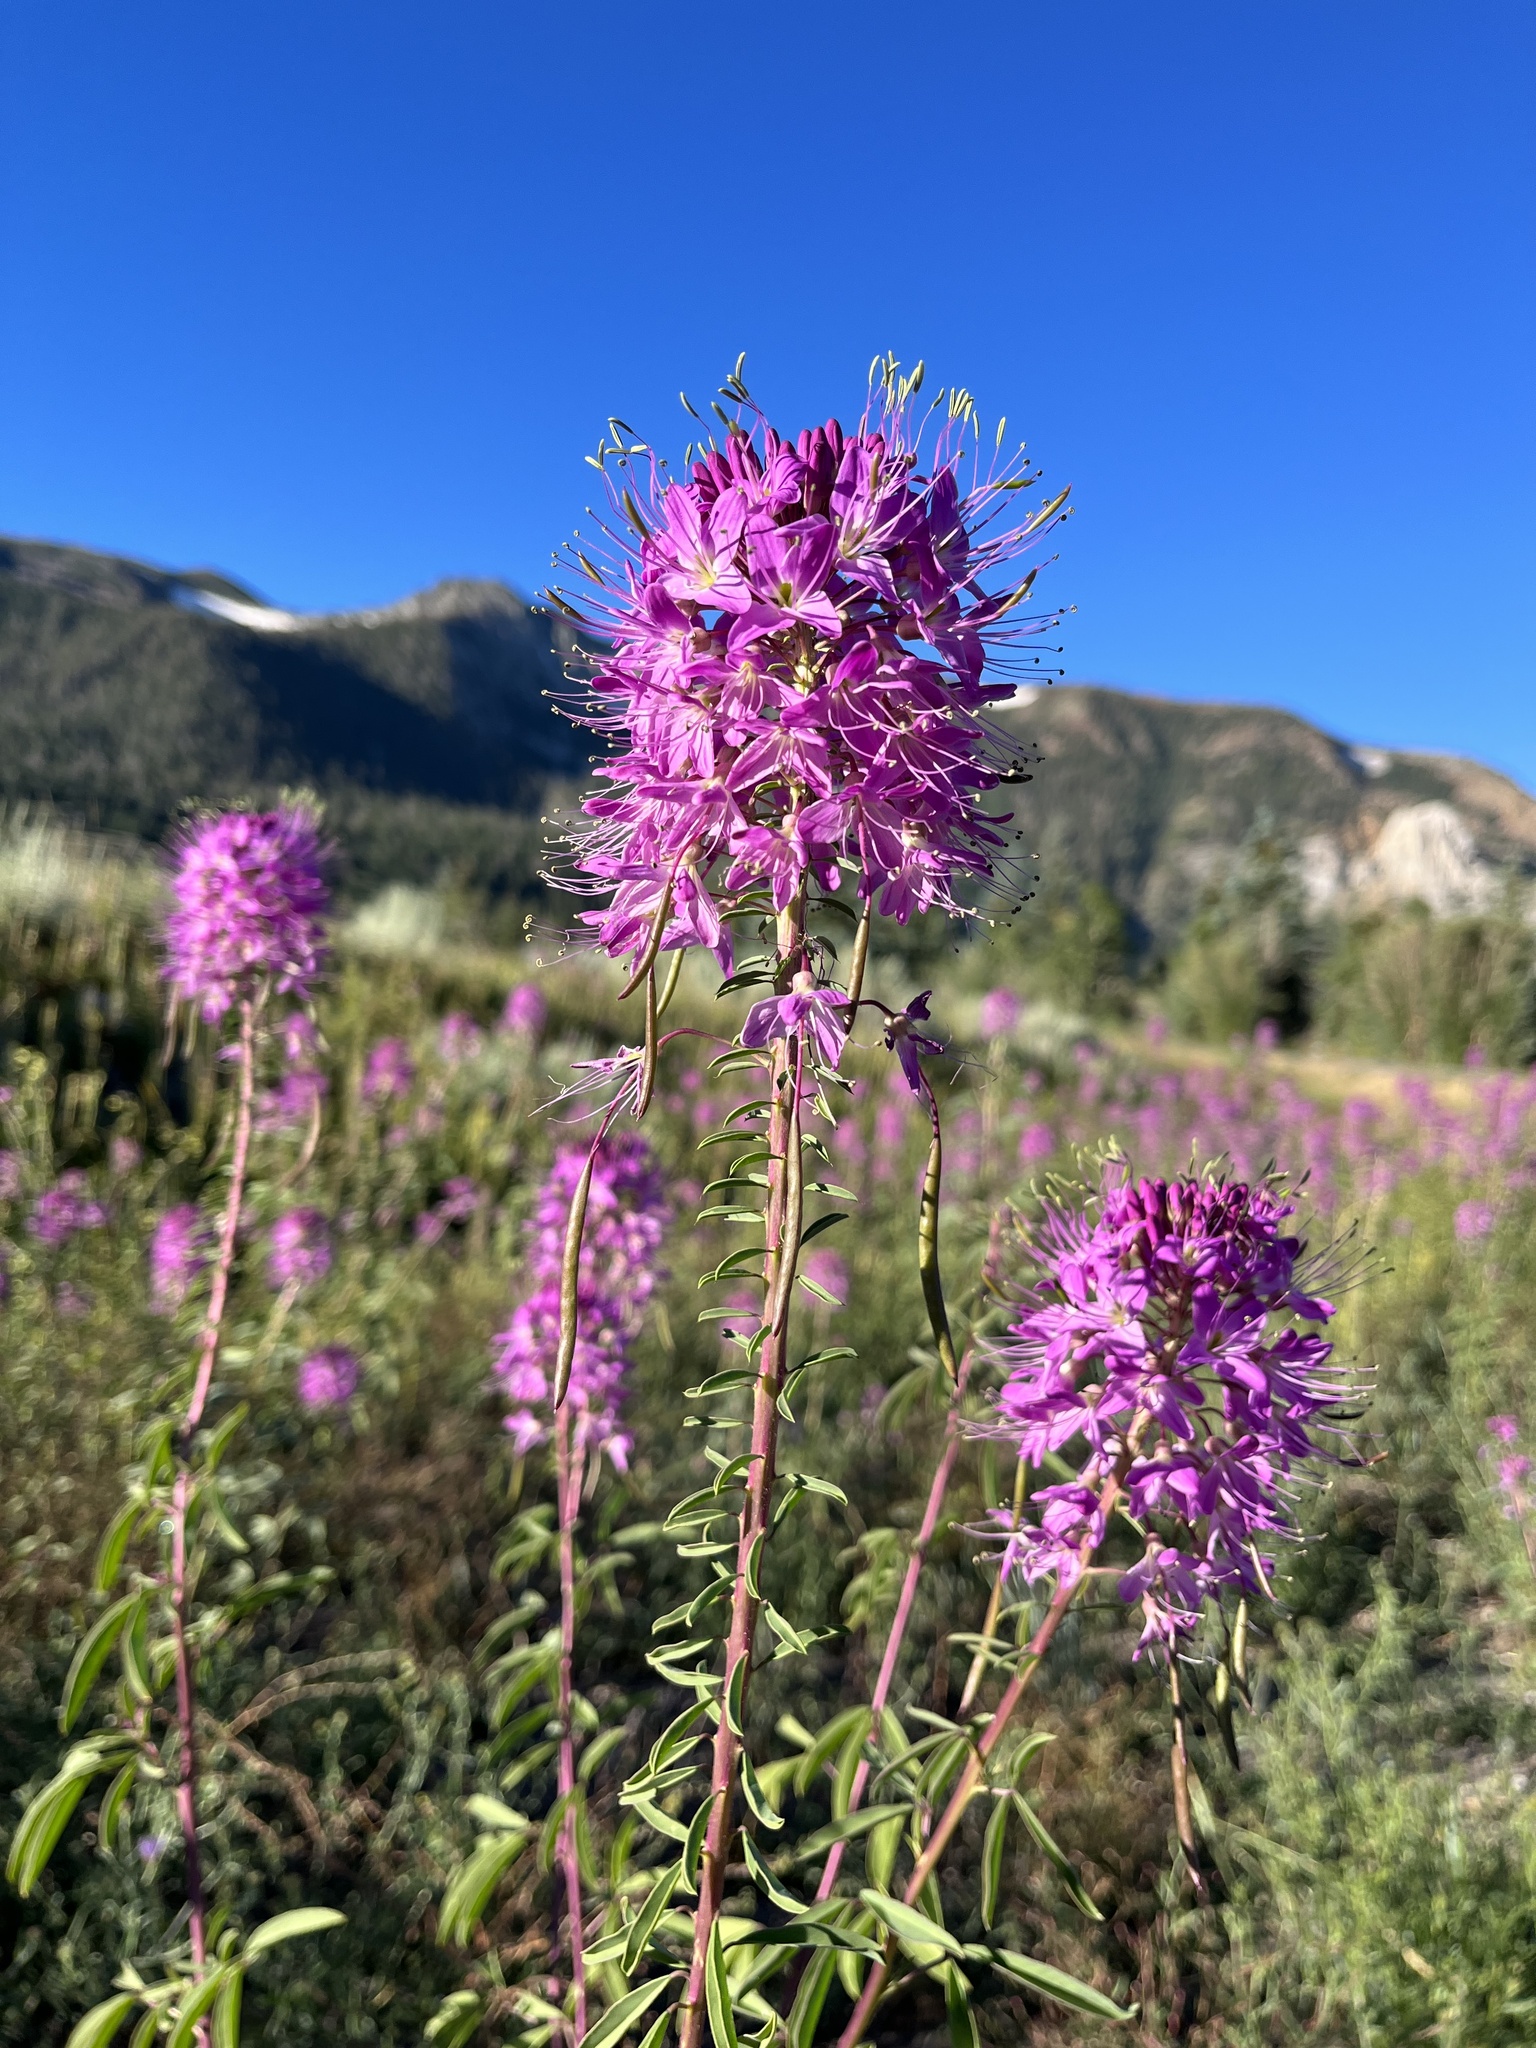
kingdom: Plantae
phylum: Tracheophyta
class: Magnoliopsida
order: Brassicales
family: Cleomaceae
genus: Cleomella
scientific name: Cleomella serrulata
